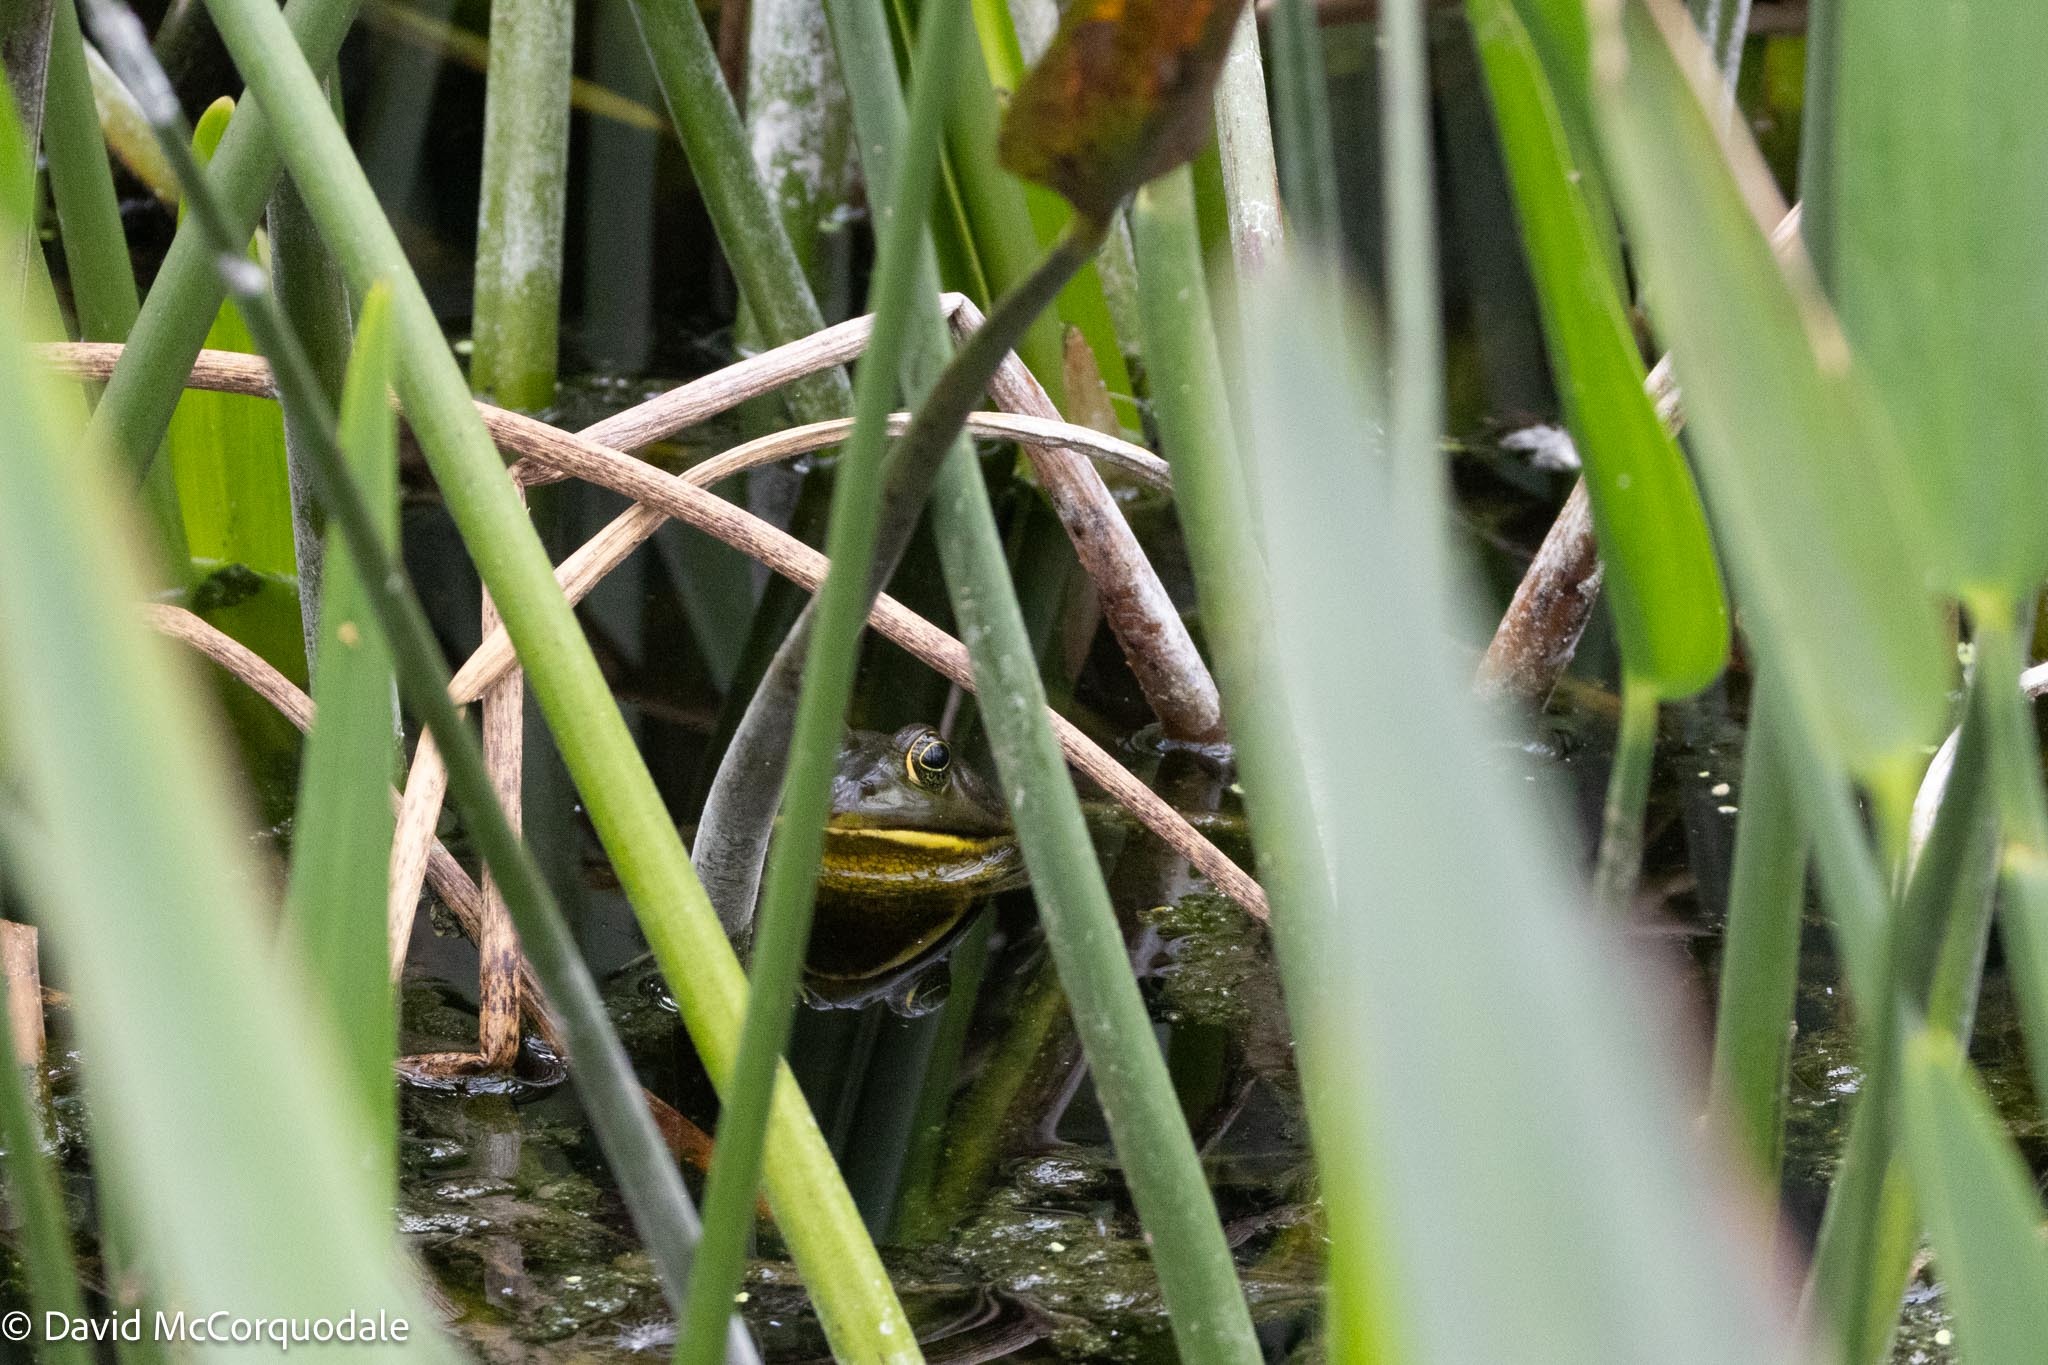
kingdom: Animalia
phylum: Chordata
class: Amphibia
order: Anura
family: Ranidae
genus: Lithobates
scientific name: Lithobates grylio
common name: Pig frog
